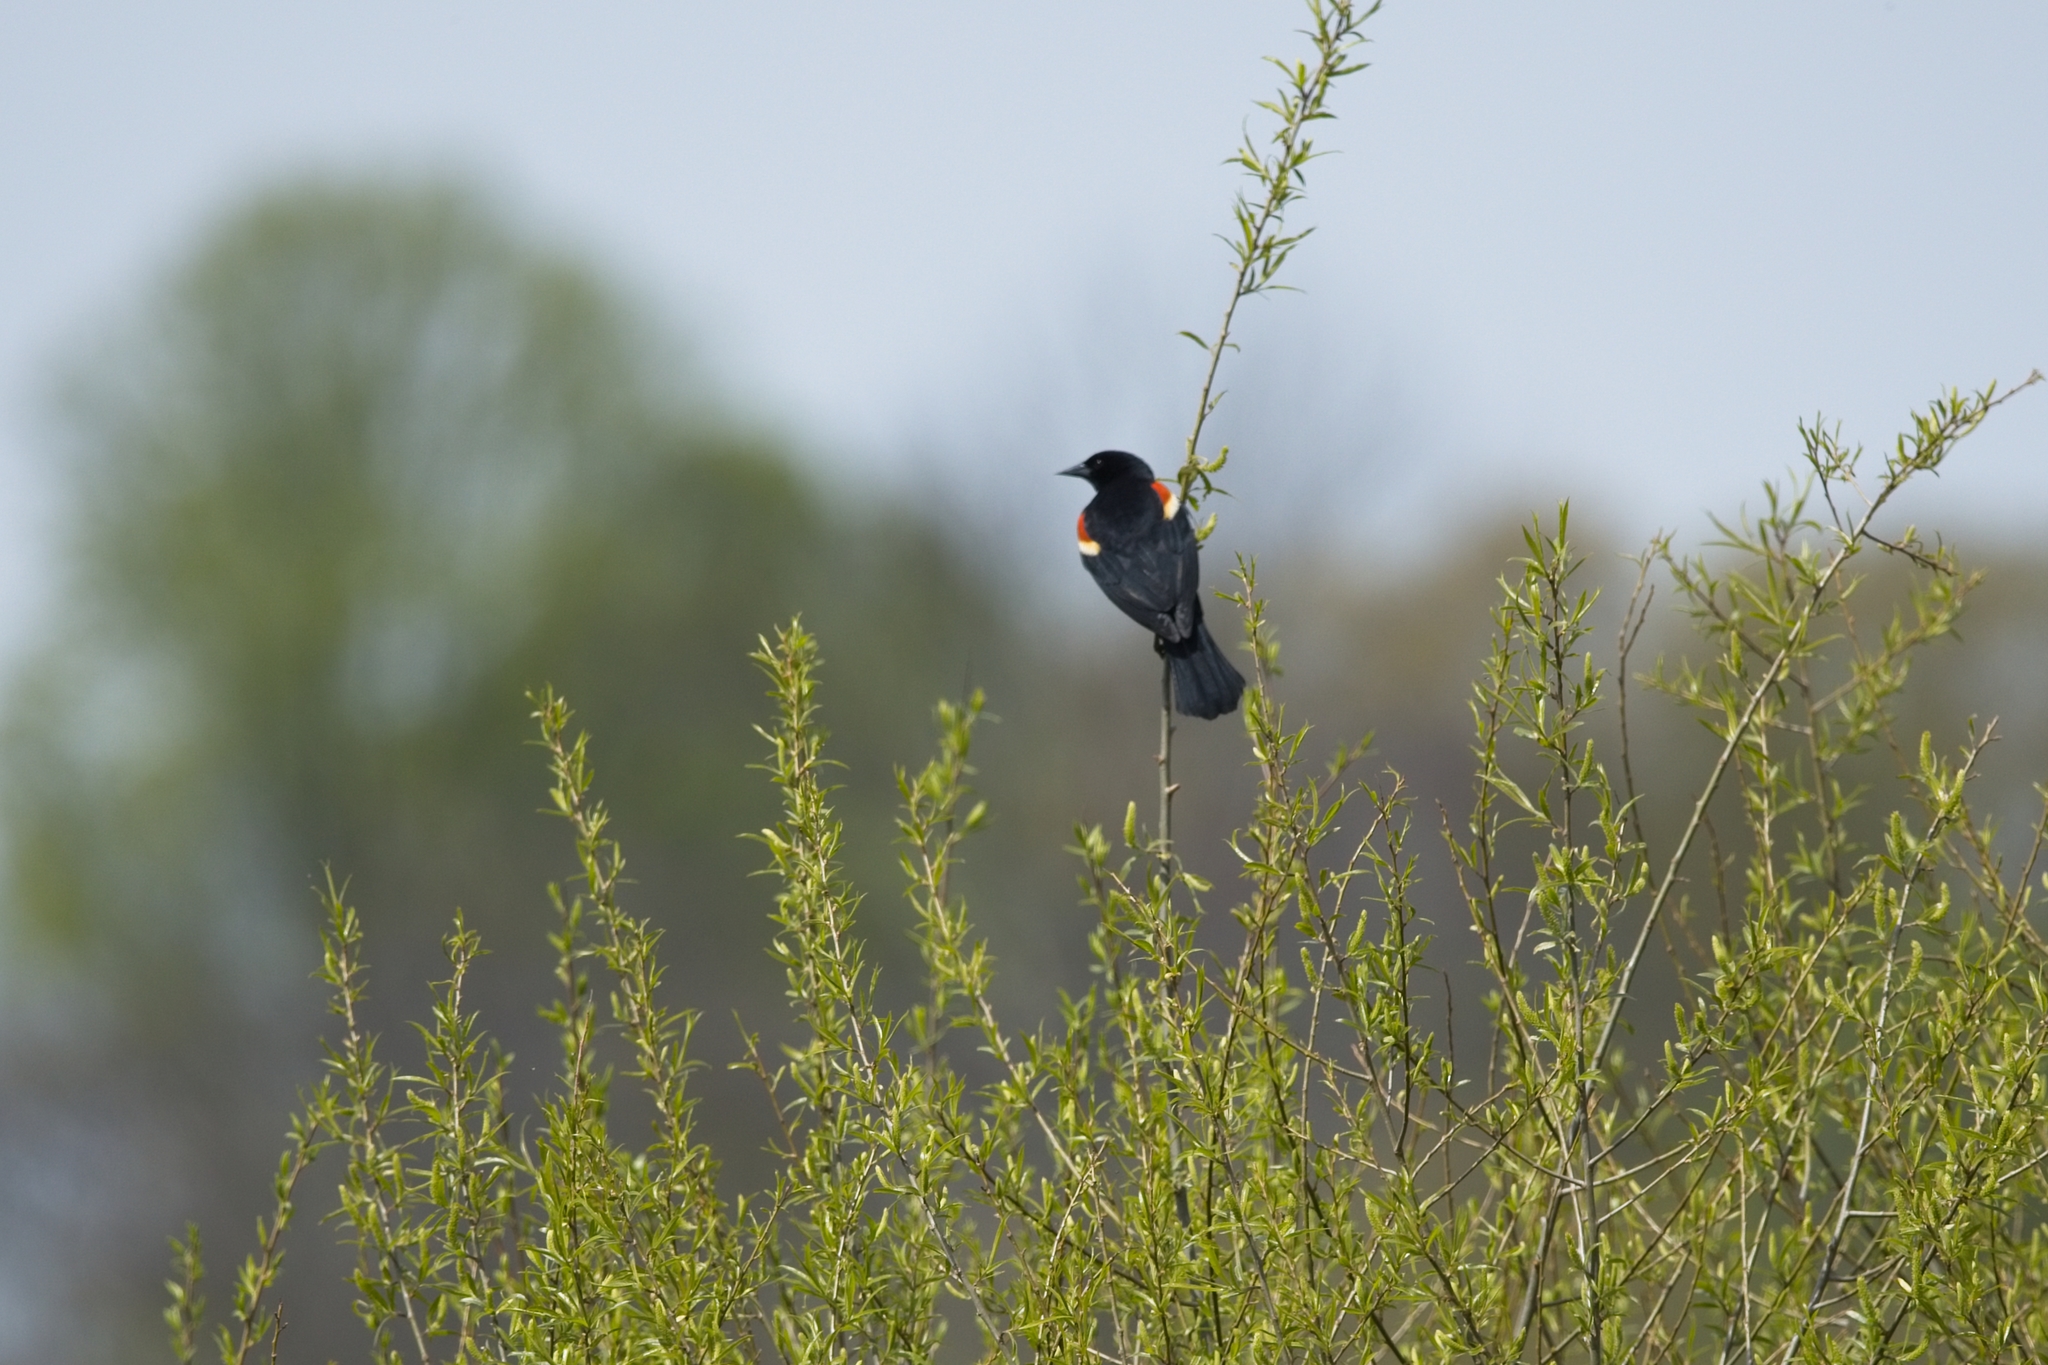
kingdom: Animalia
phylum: Chordata
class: Aves
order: Passeriformes
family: Icteridae
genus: Agelaius
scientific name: Agelaius phoeniceus
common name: Red-winged blackbird
